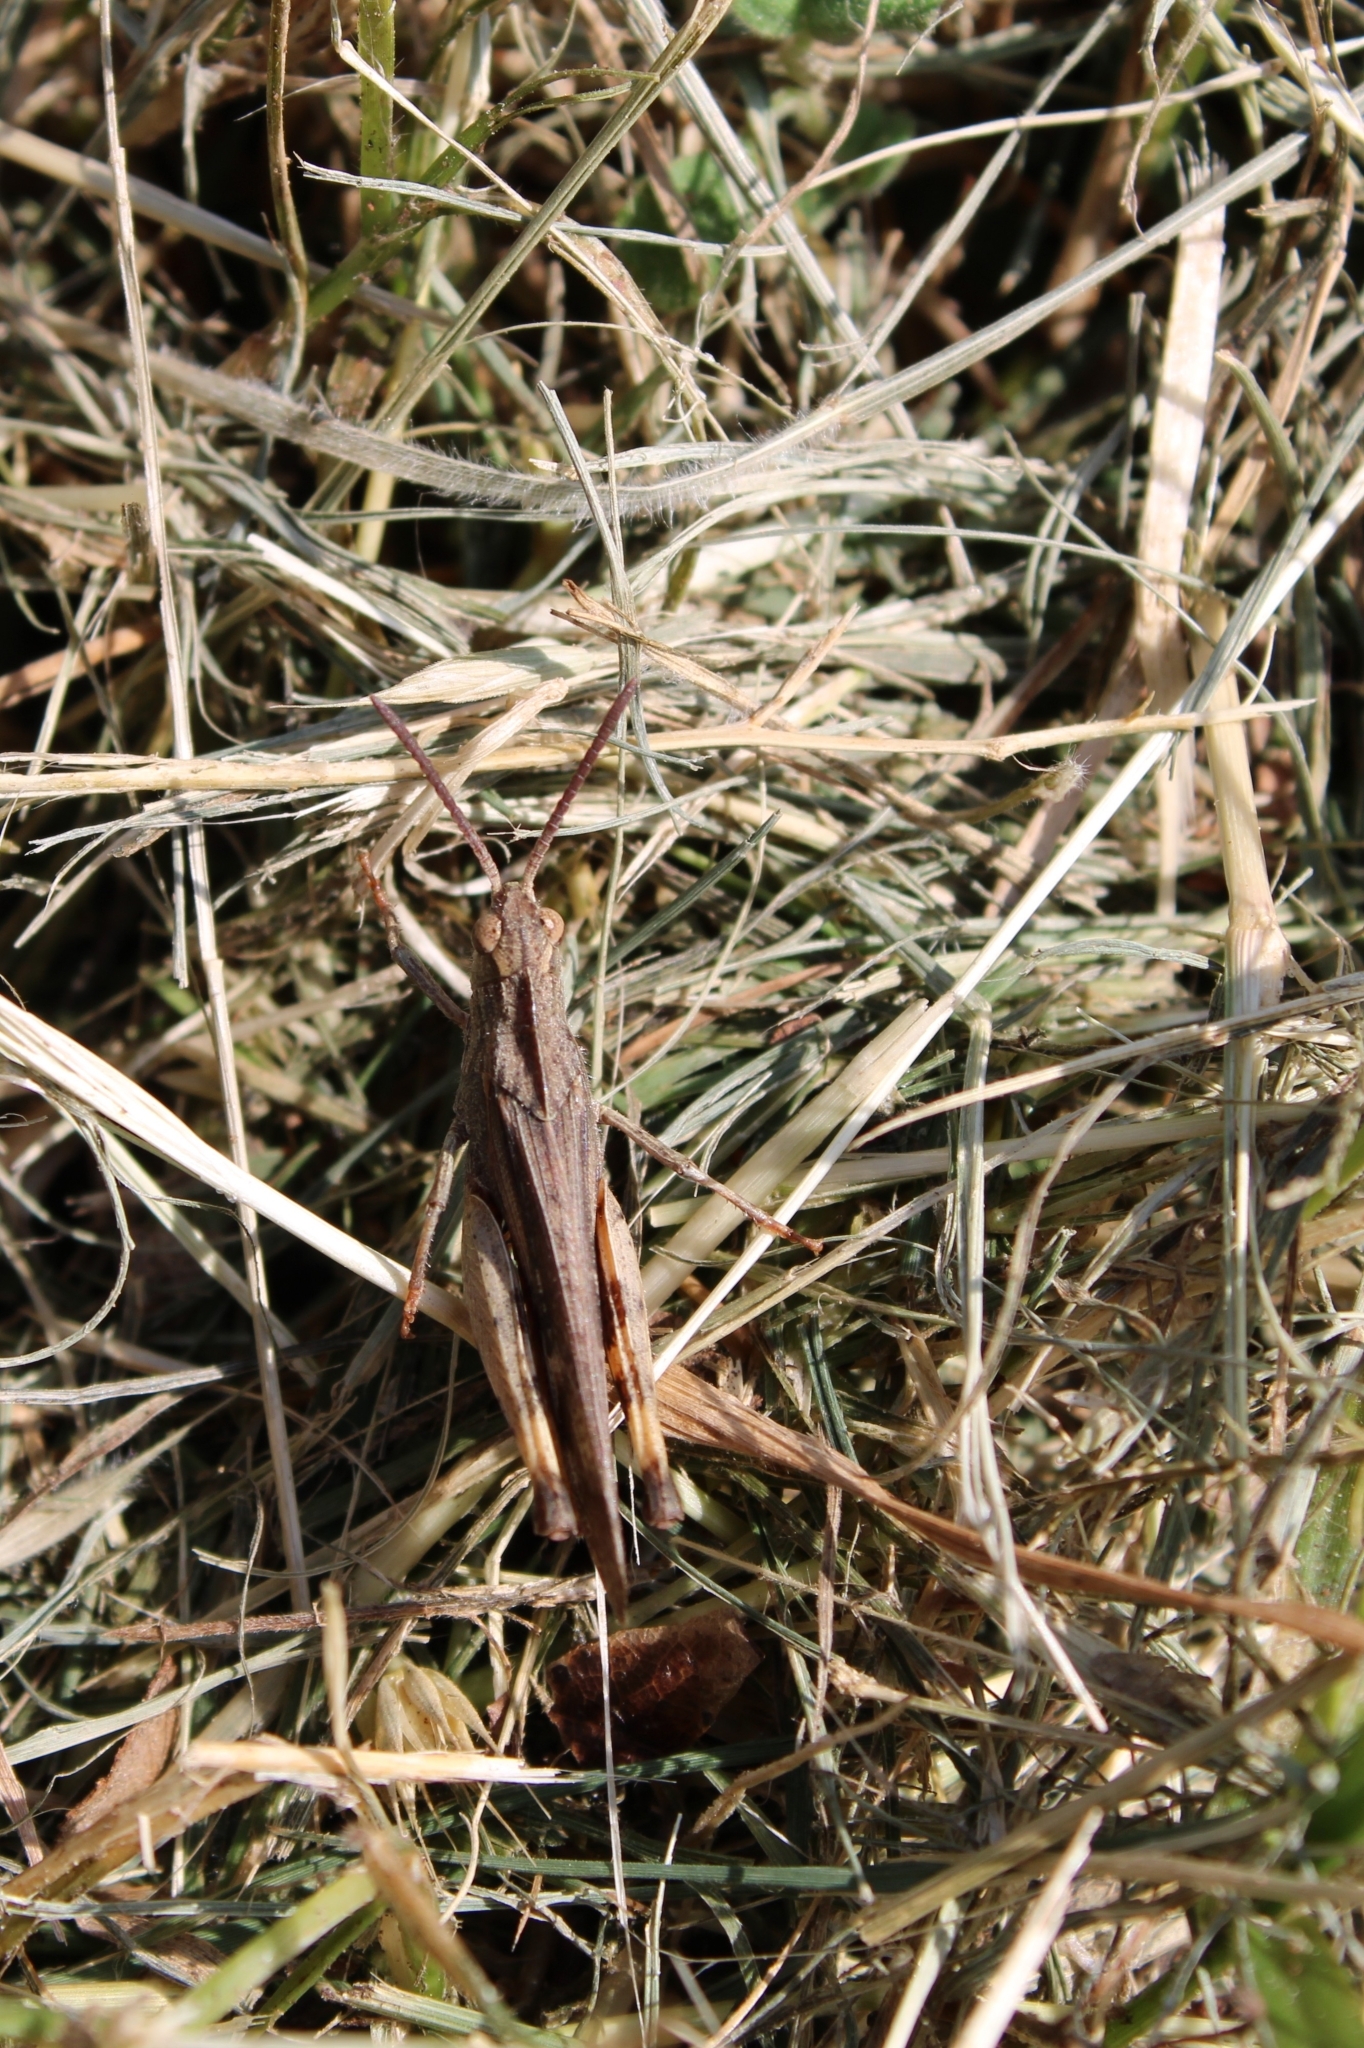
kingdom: Animalia
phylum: Arthropoda
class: Insecta
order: Orthoptera
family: Acrididae
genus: Chortophaga
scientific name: Chortophaga viridifasciata
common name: Green-striped grasshopper
